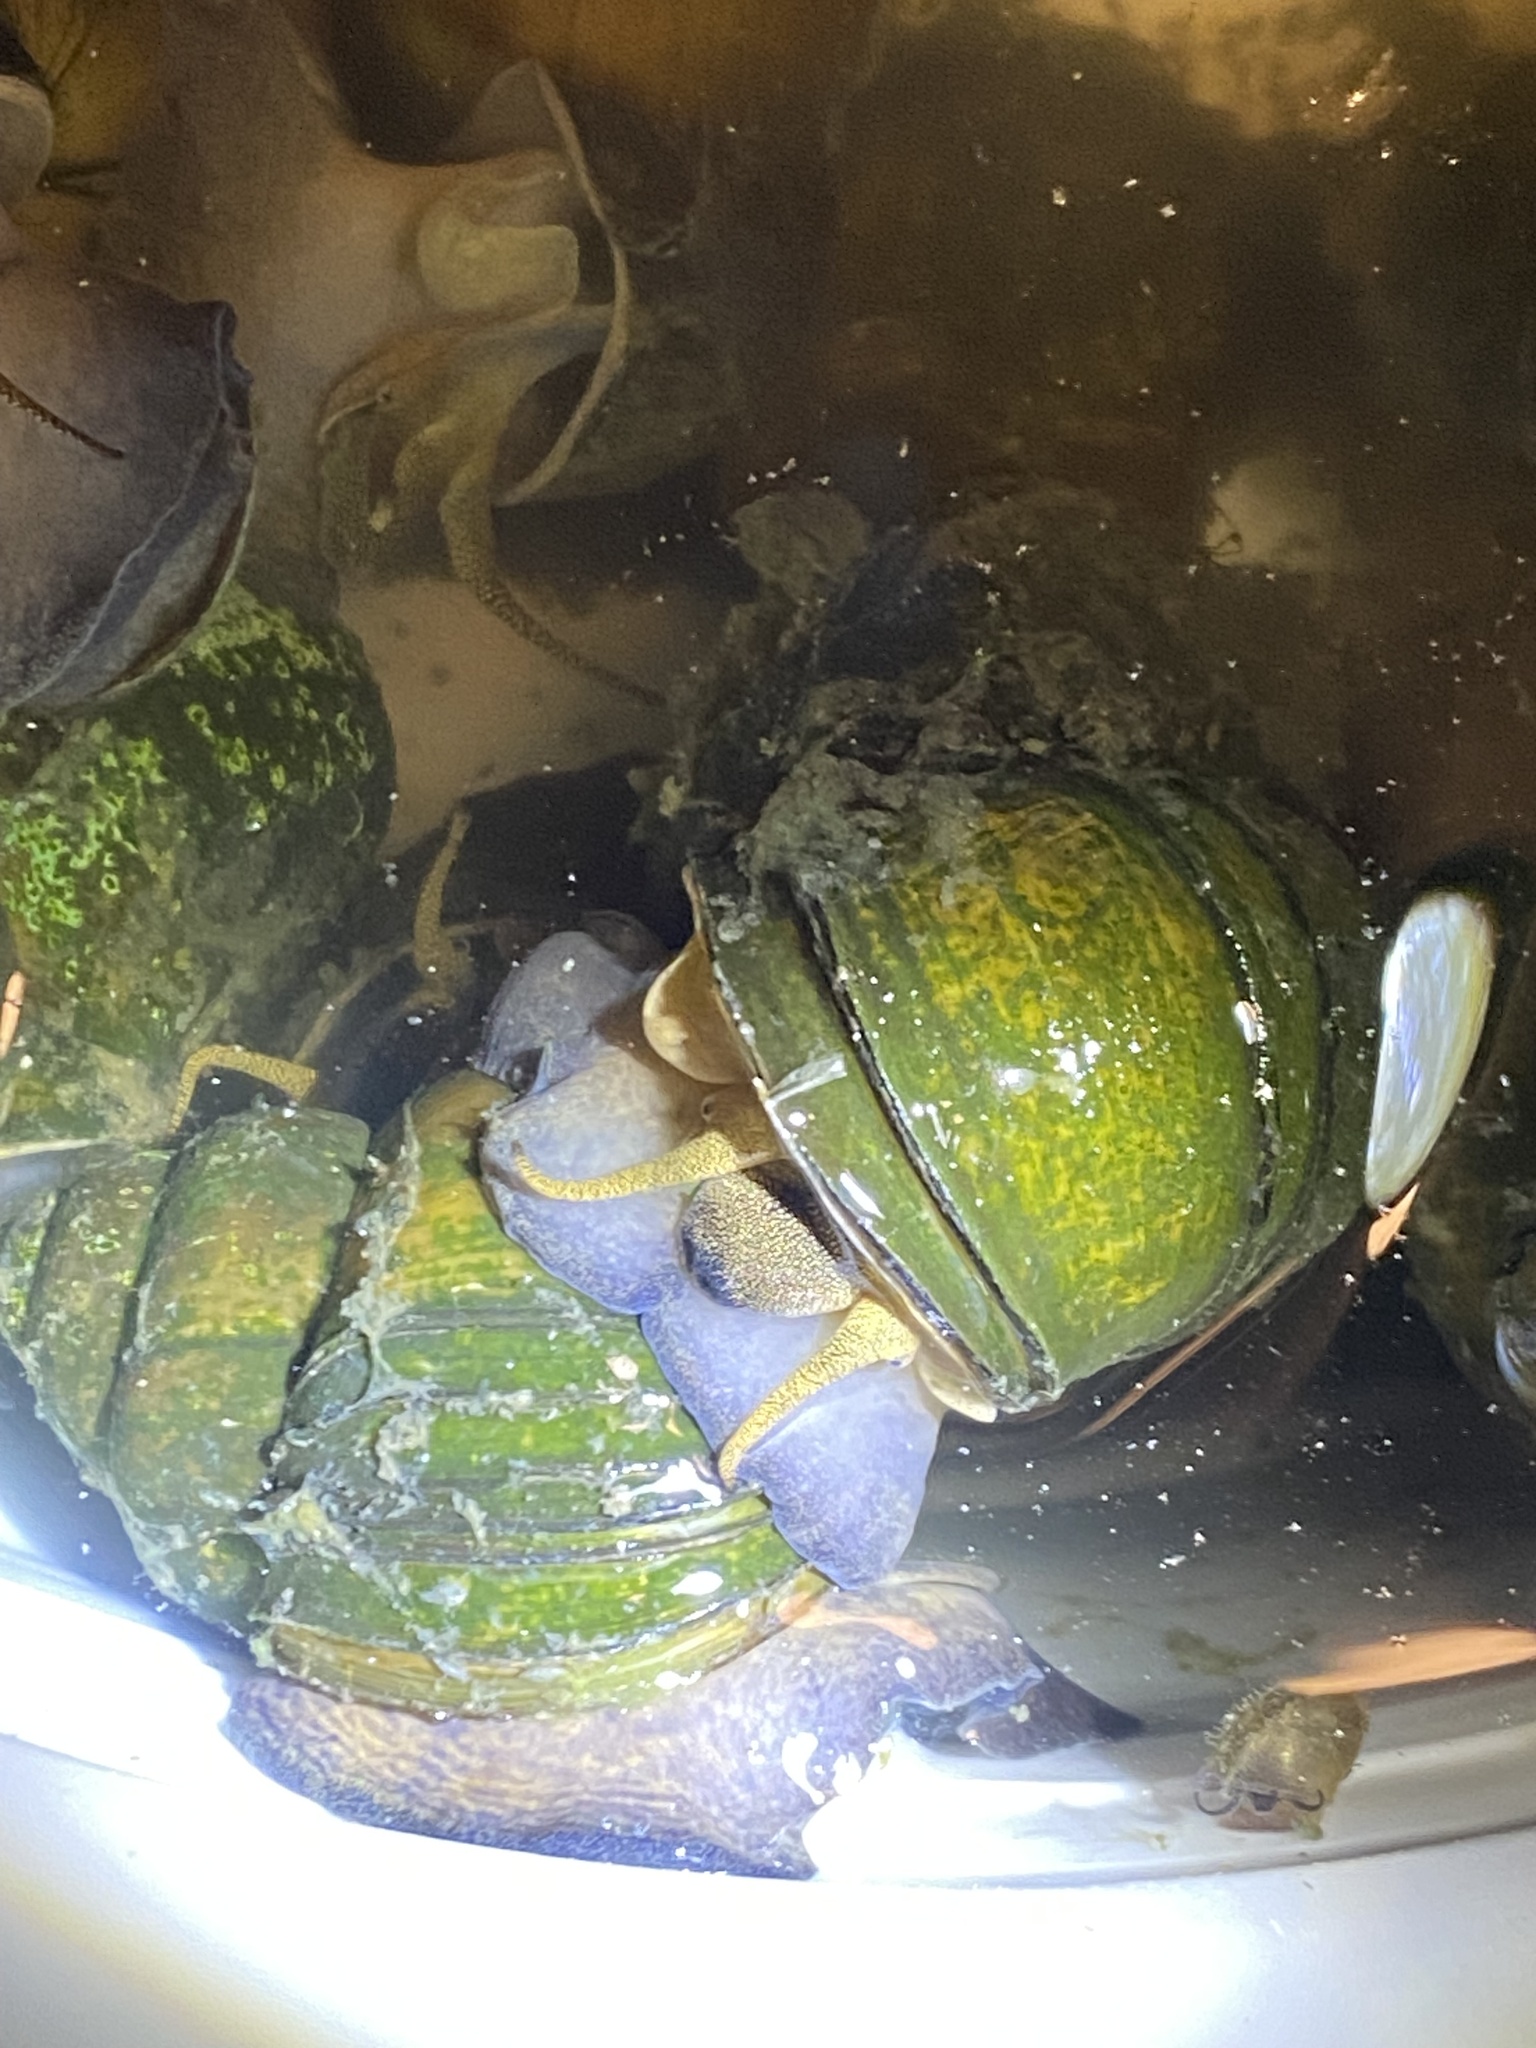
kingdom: Animalia
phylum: Mollusca
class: Gastropoda
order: Architaenioglossa
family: Viviparidae
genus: Cipangopaludina
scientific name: Cipangopaludina chinensis
